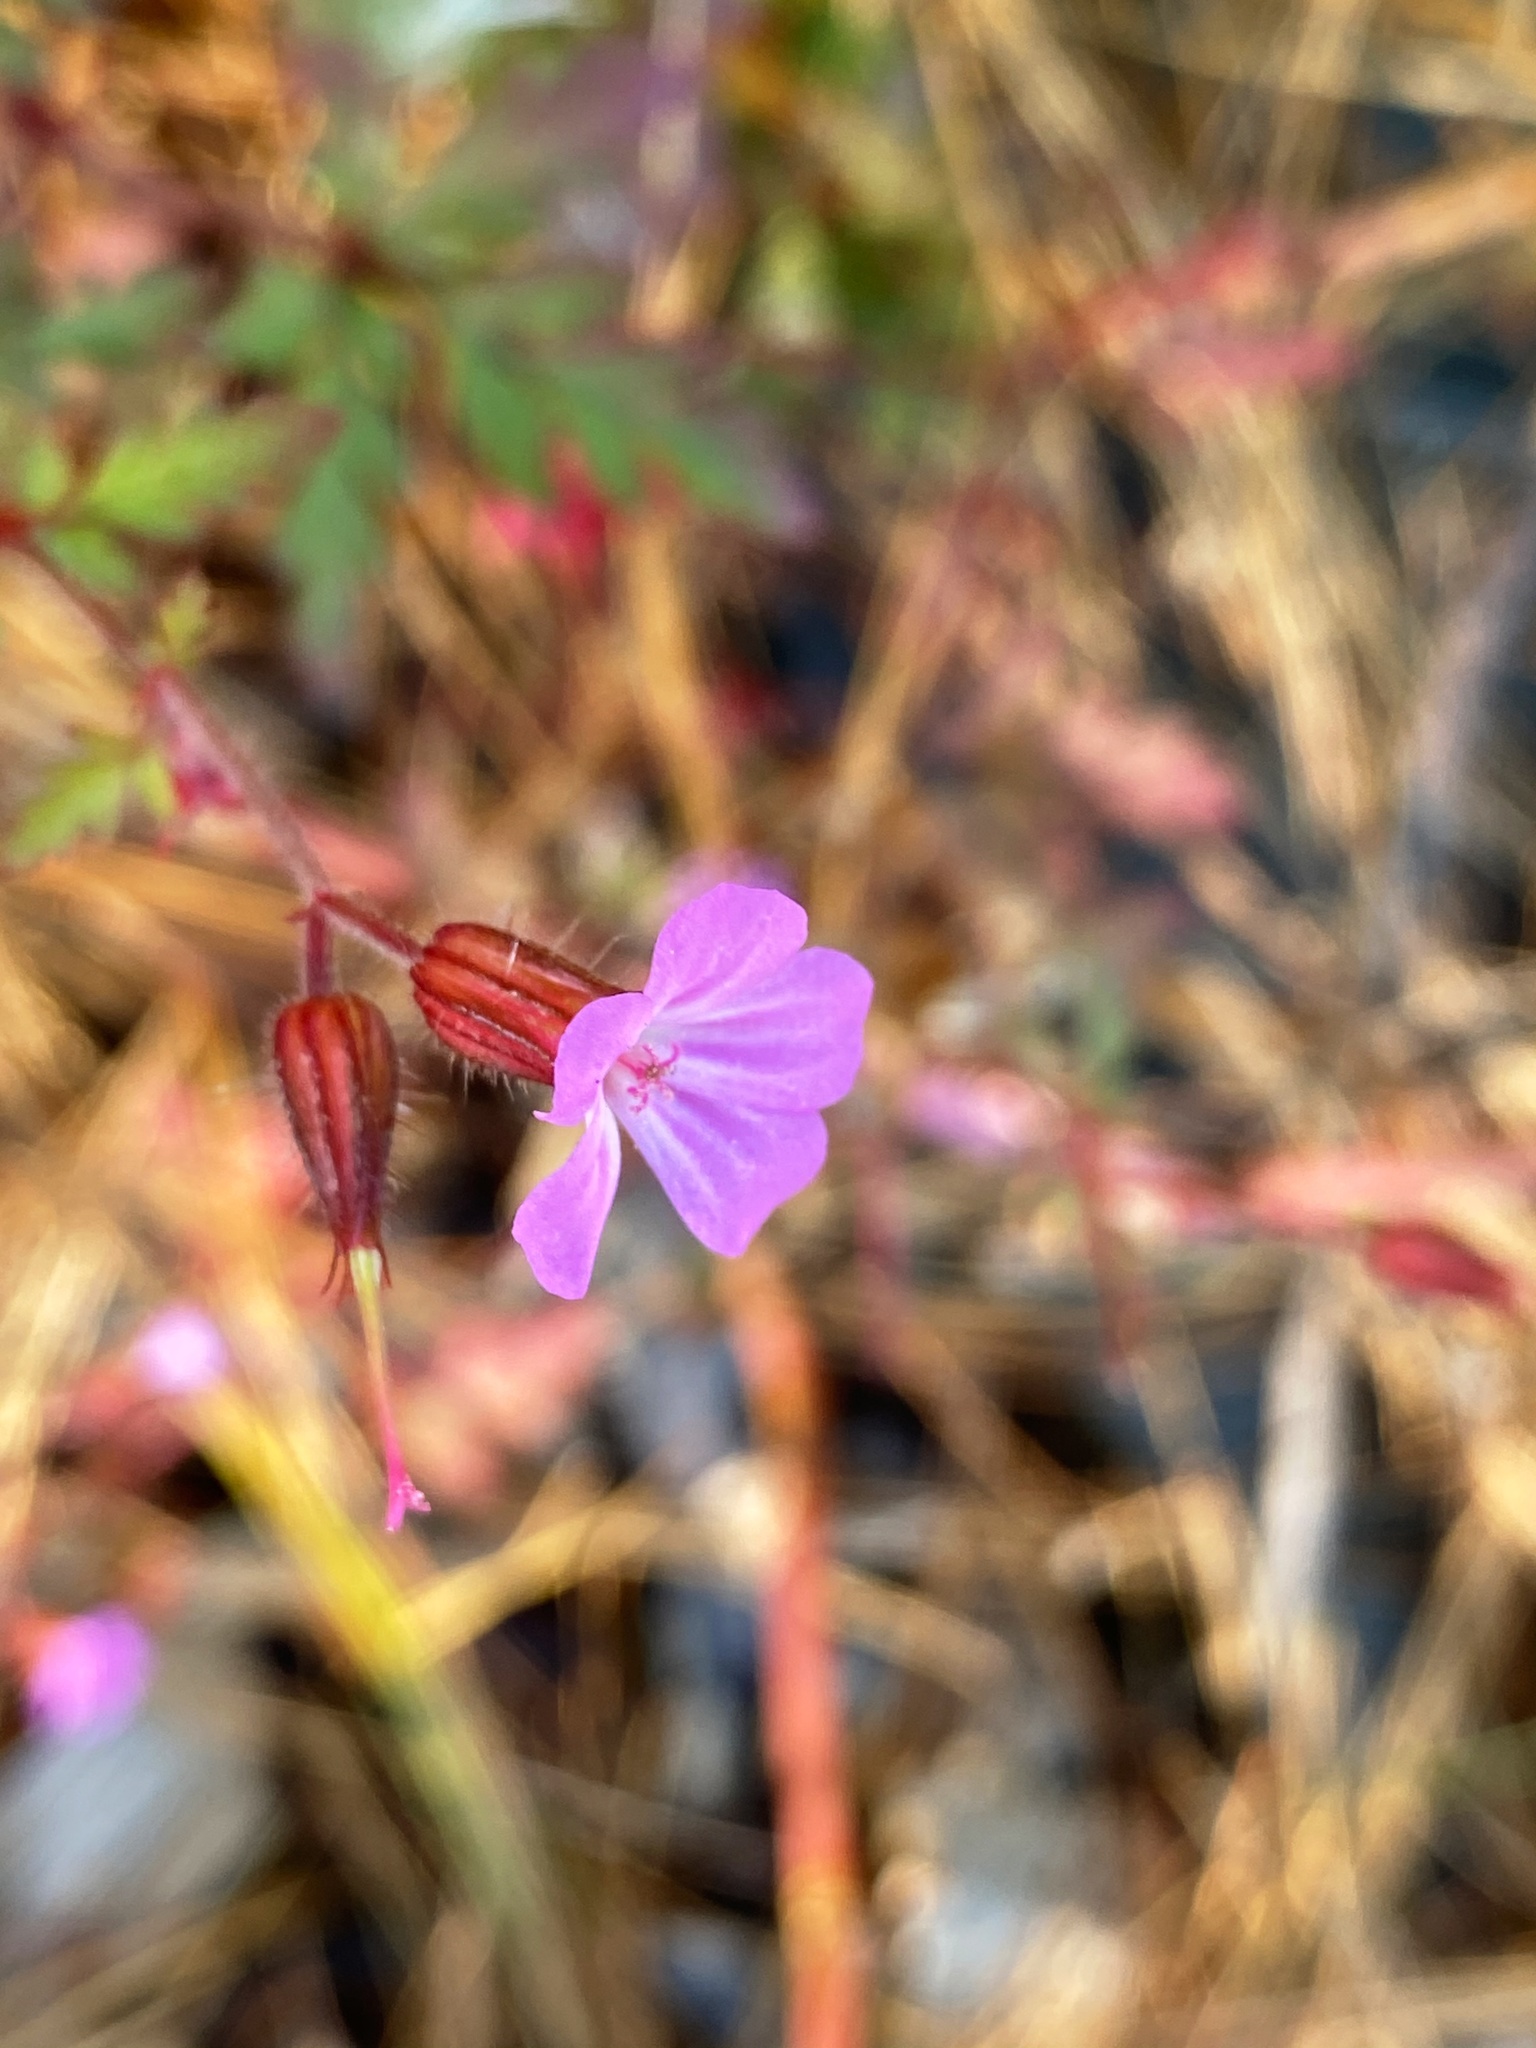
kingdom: Plantae
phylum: Tracheophyta
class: Magnoliopsida
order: Geraniales
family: Geraniaceae
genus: Geranium
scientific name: Geranium robertianum
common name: Herb-robert
